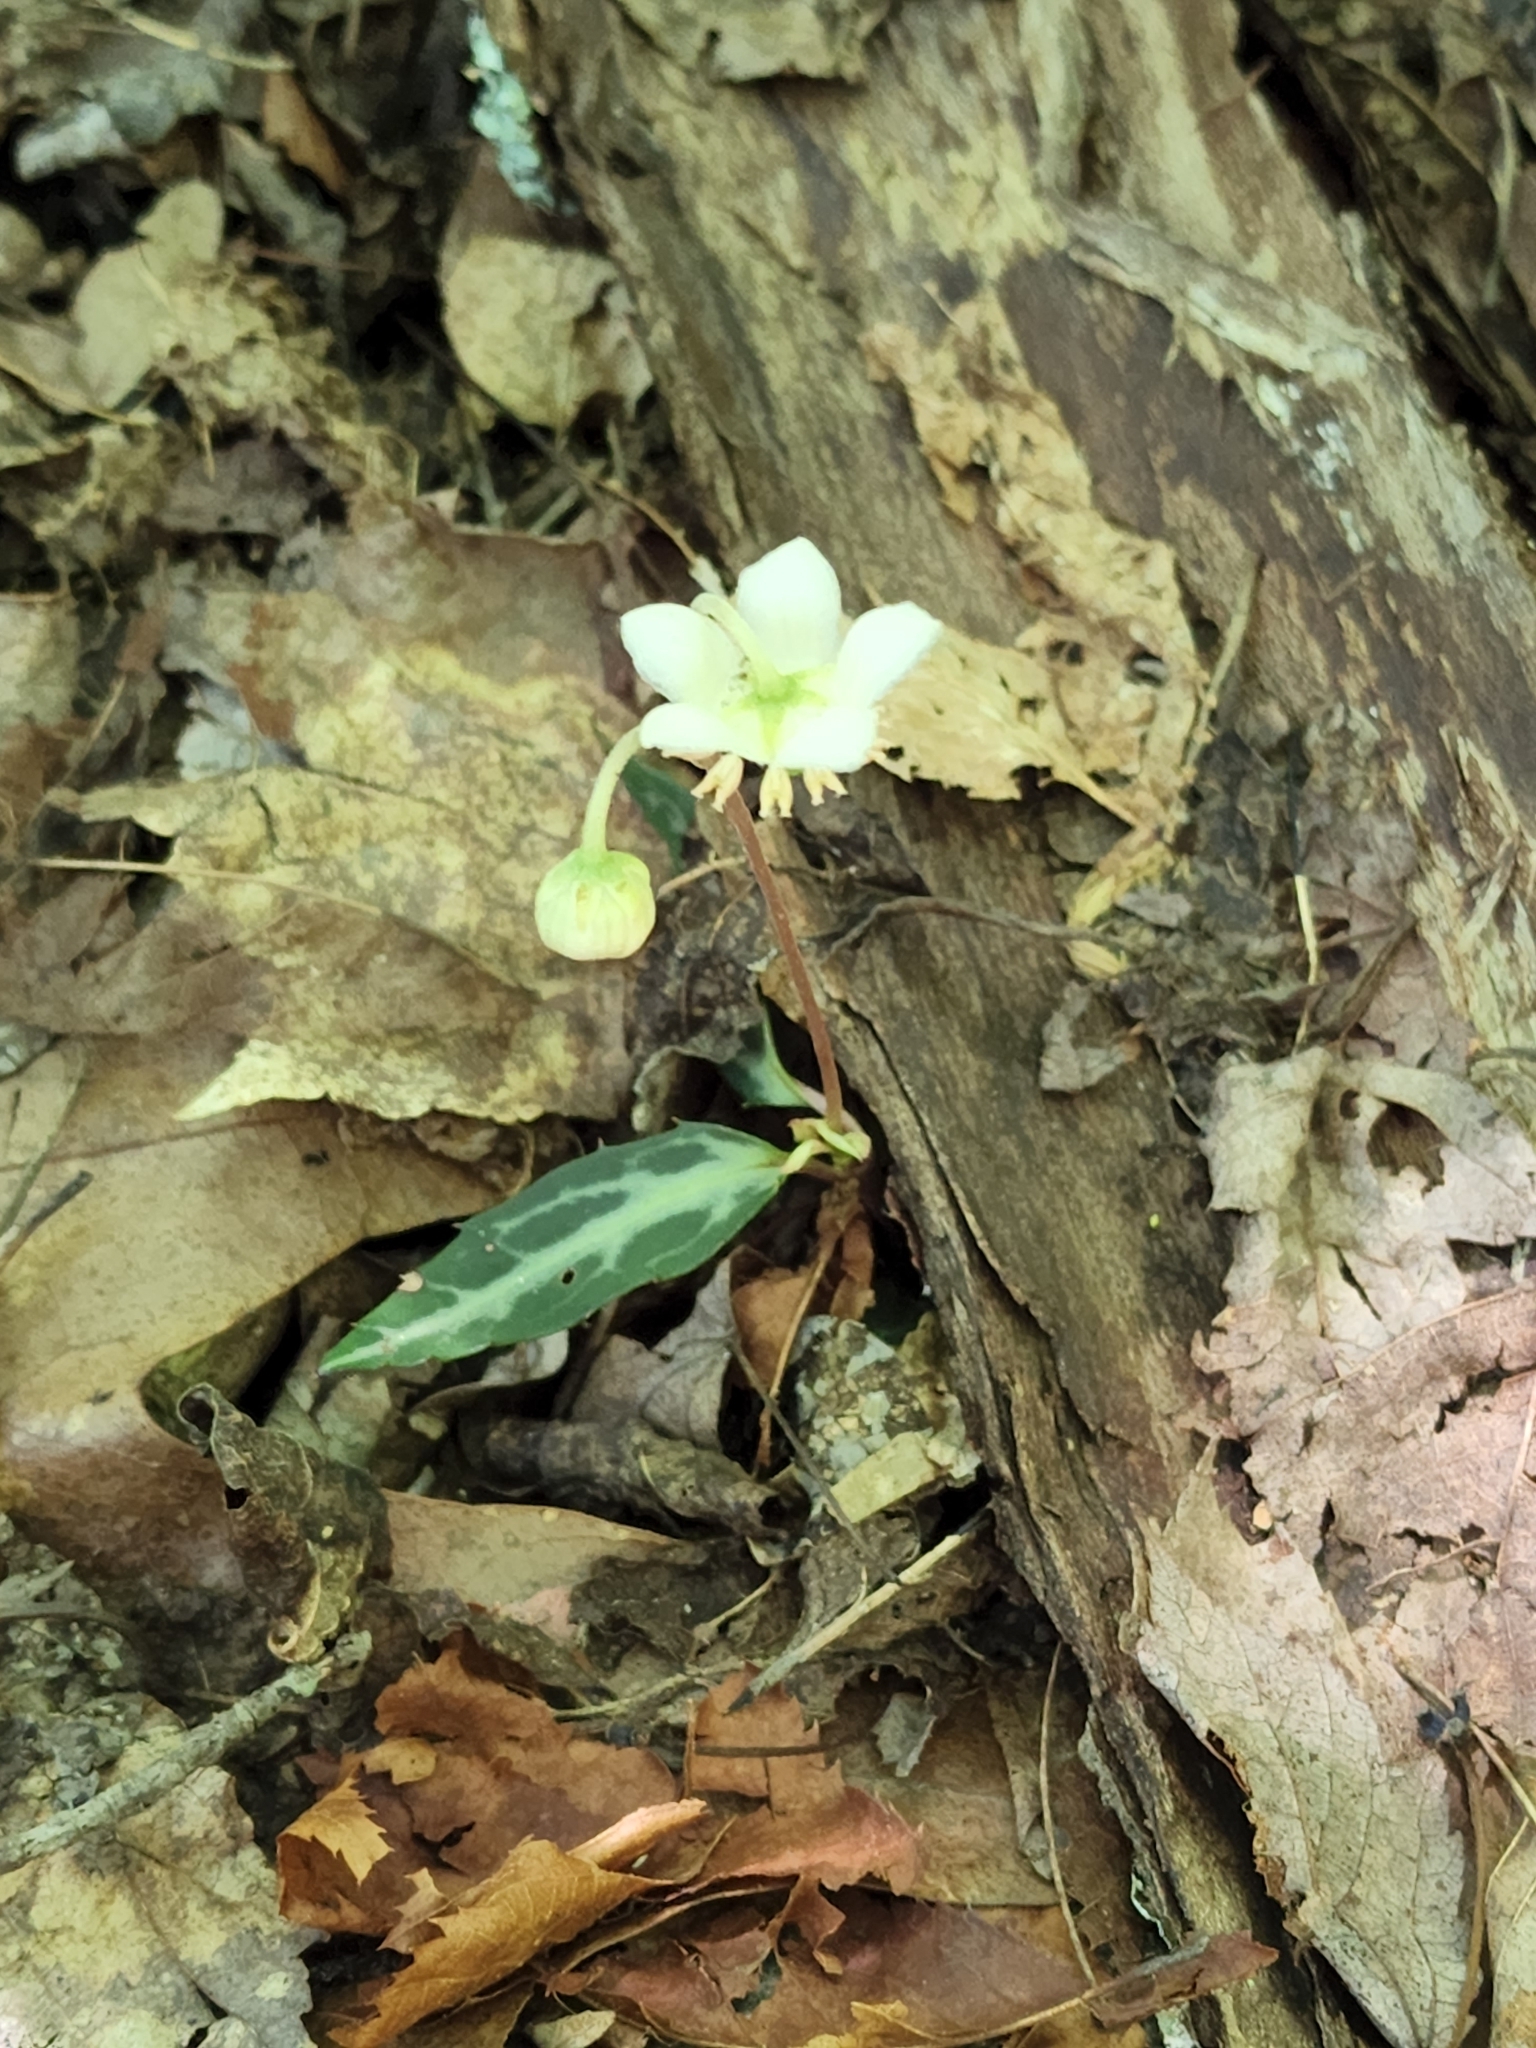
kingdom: Plantae
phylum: Tracheophyta
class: Magnoliopsida
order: Ericales
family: Ericaceae
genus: Chimaphila
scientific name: Chimaphila maculata
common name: Spotted pipsissewa
